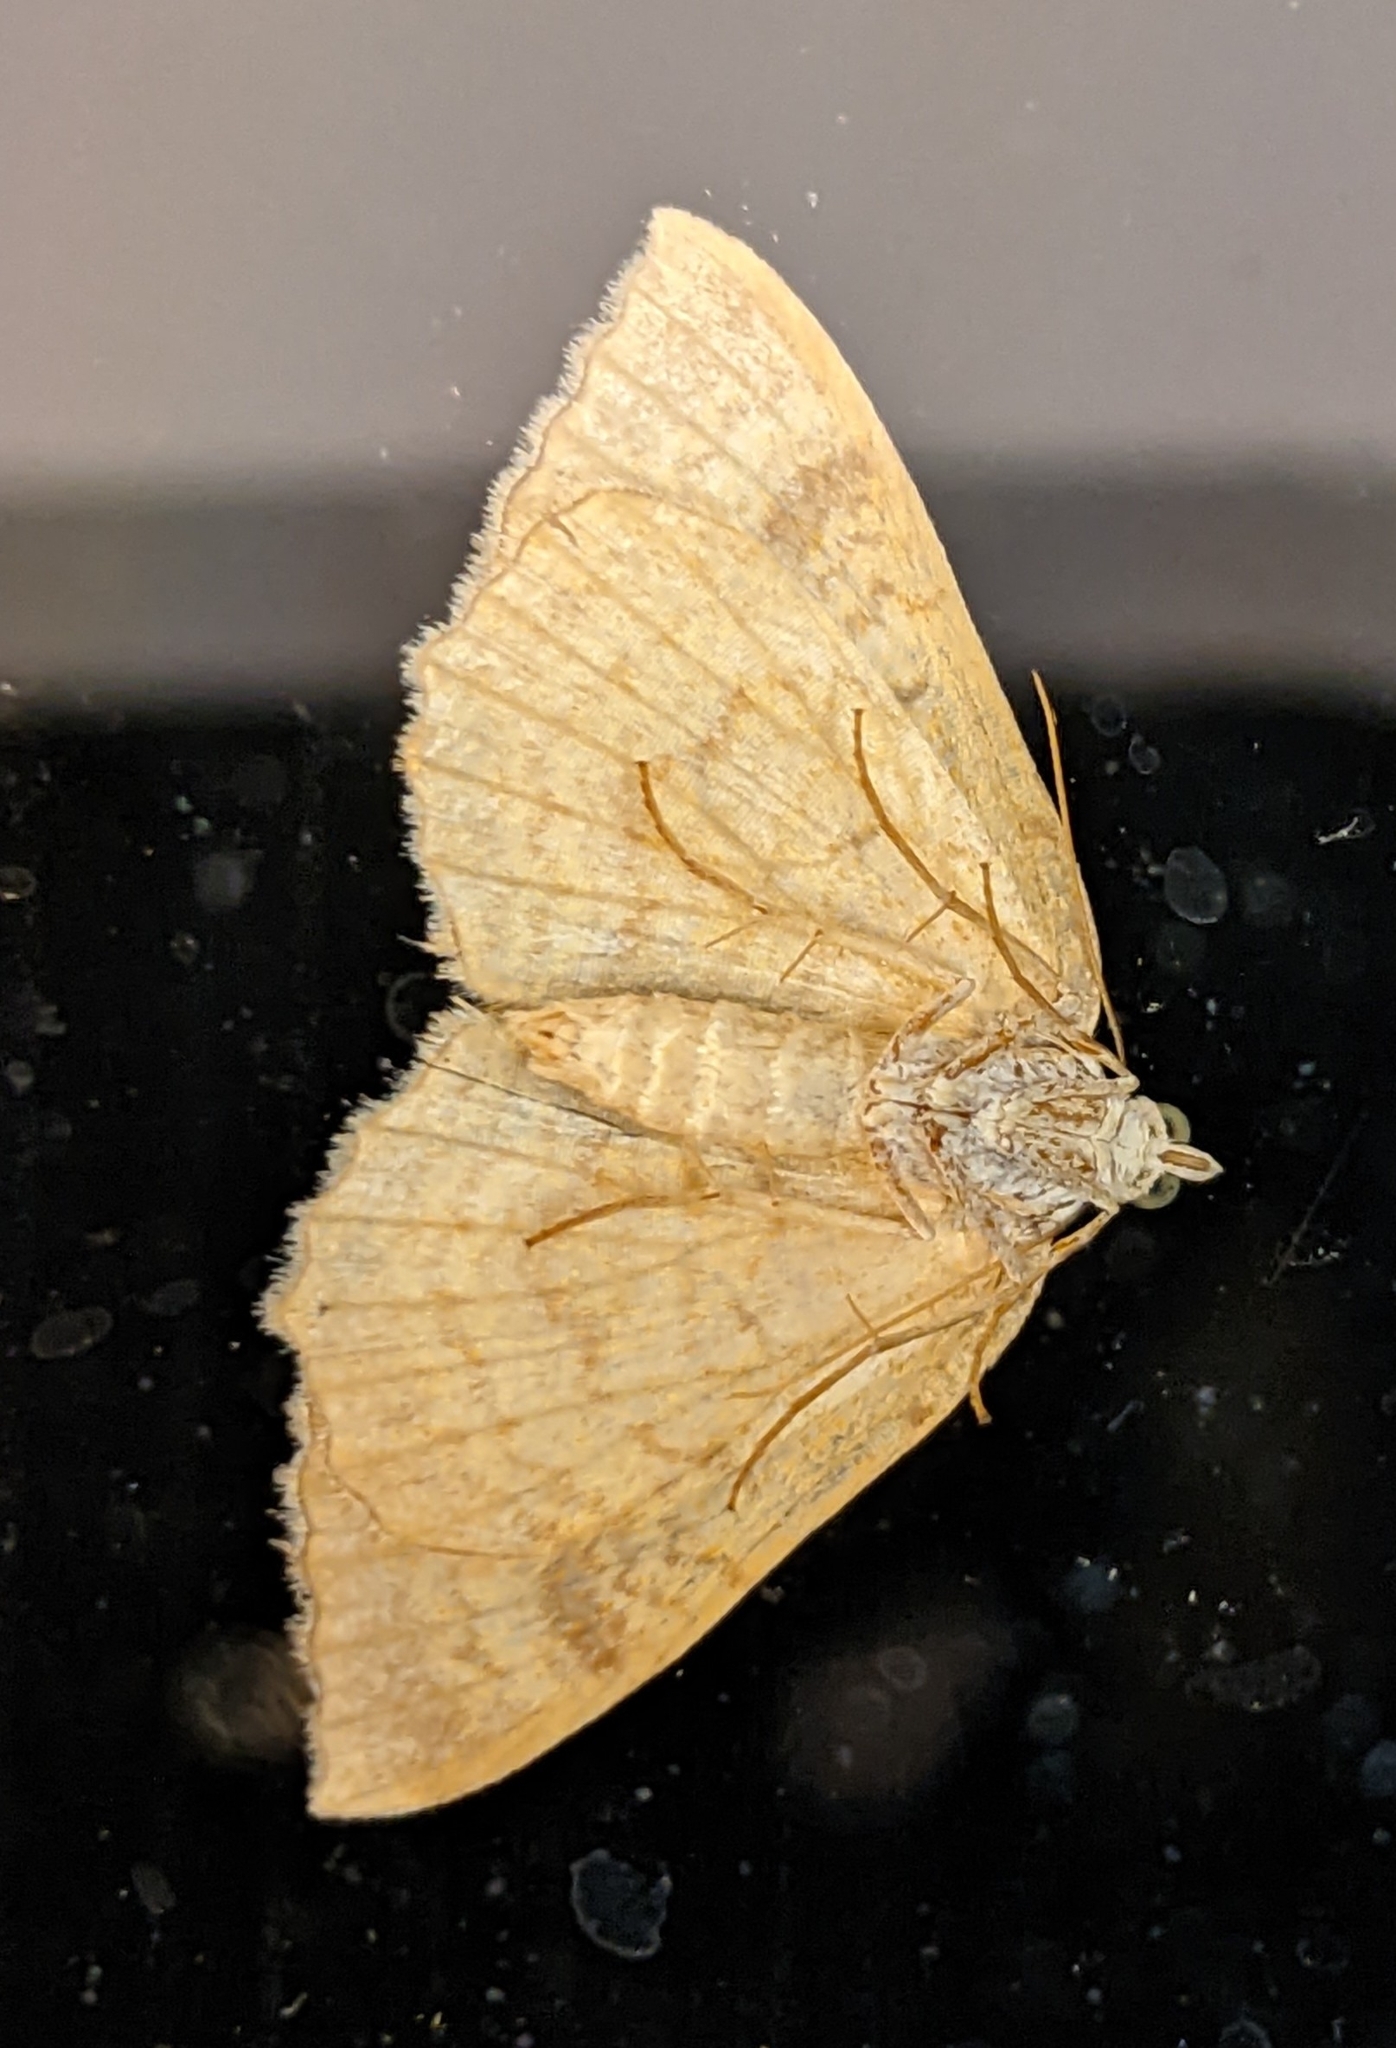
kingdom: Animalia
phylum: Arthropoda
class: Insecta
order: Lepidoptera
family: Geometridae
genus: Camptogramma
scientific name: Camptogramma bilineata
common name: Yellow shell
